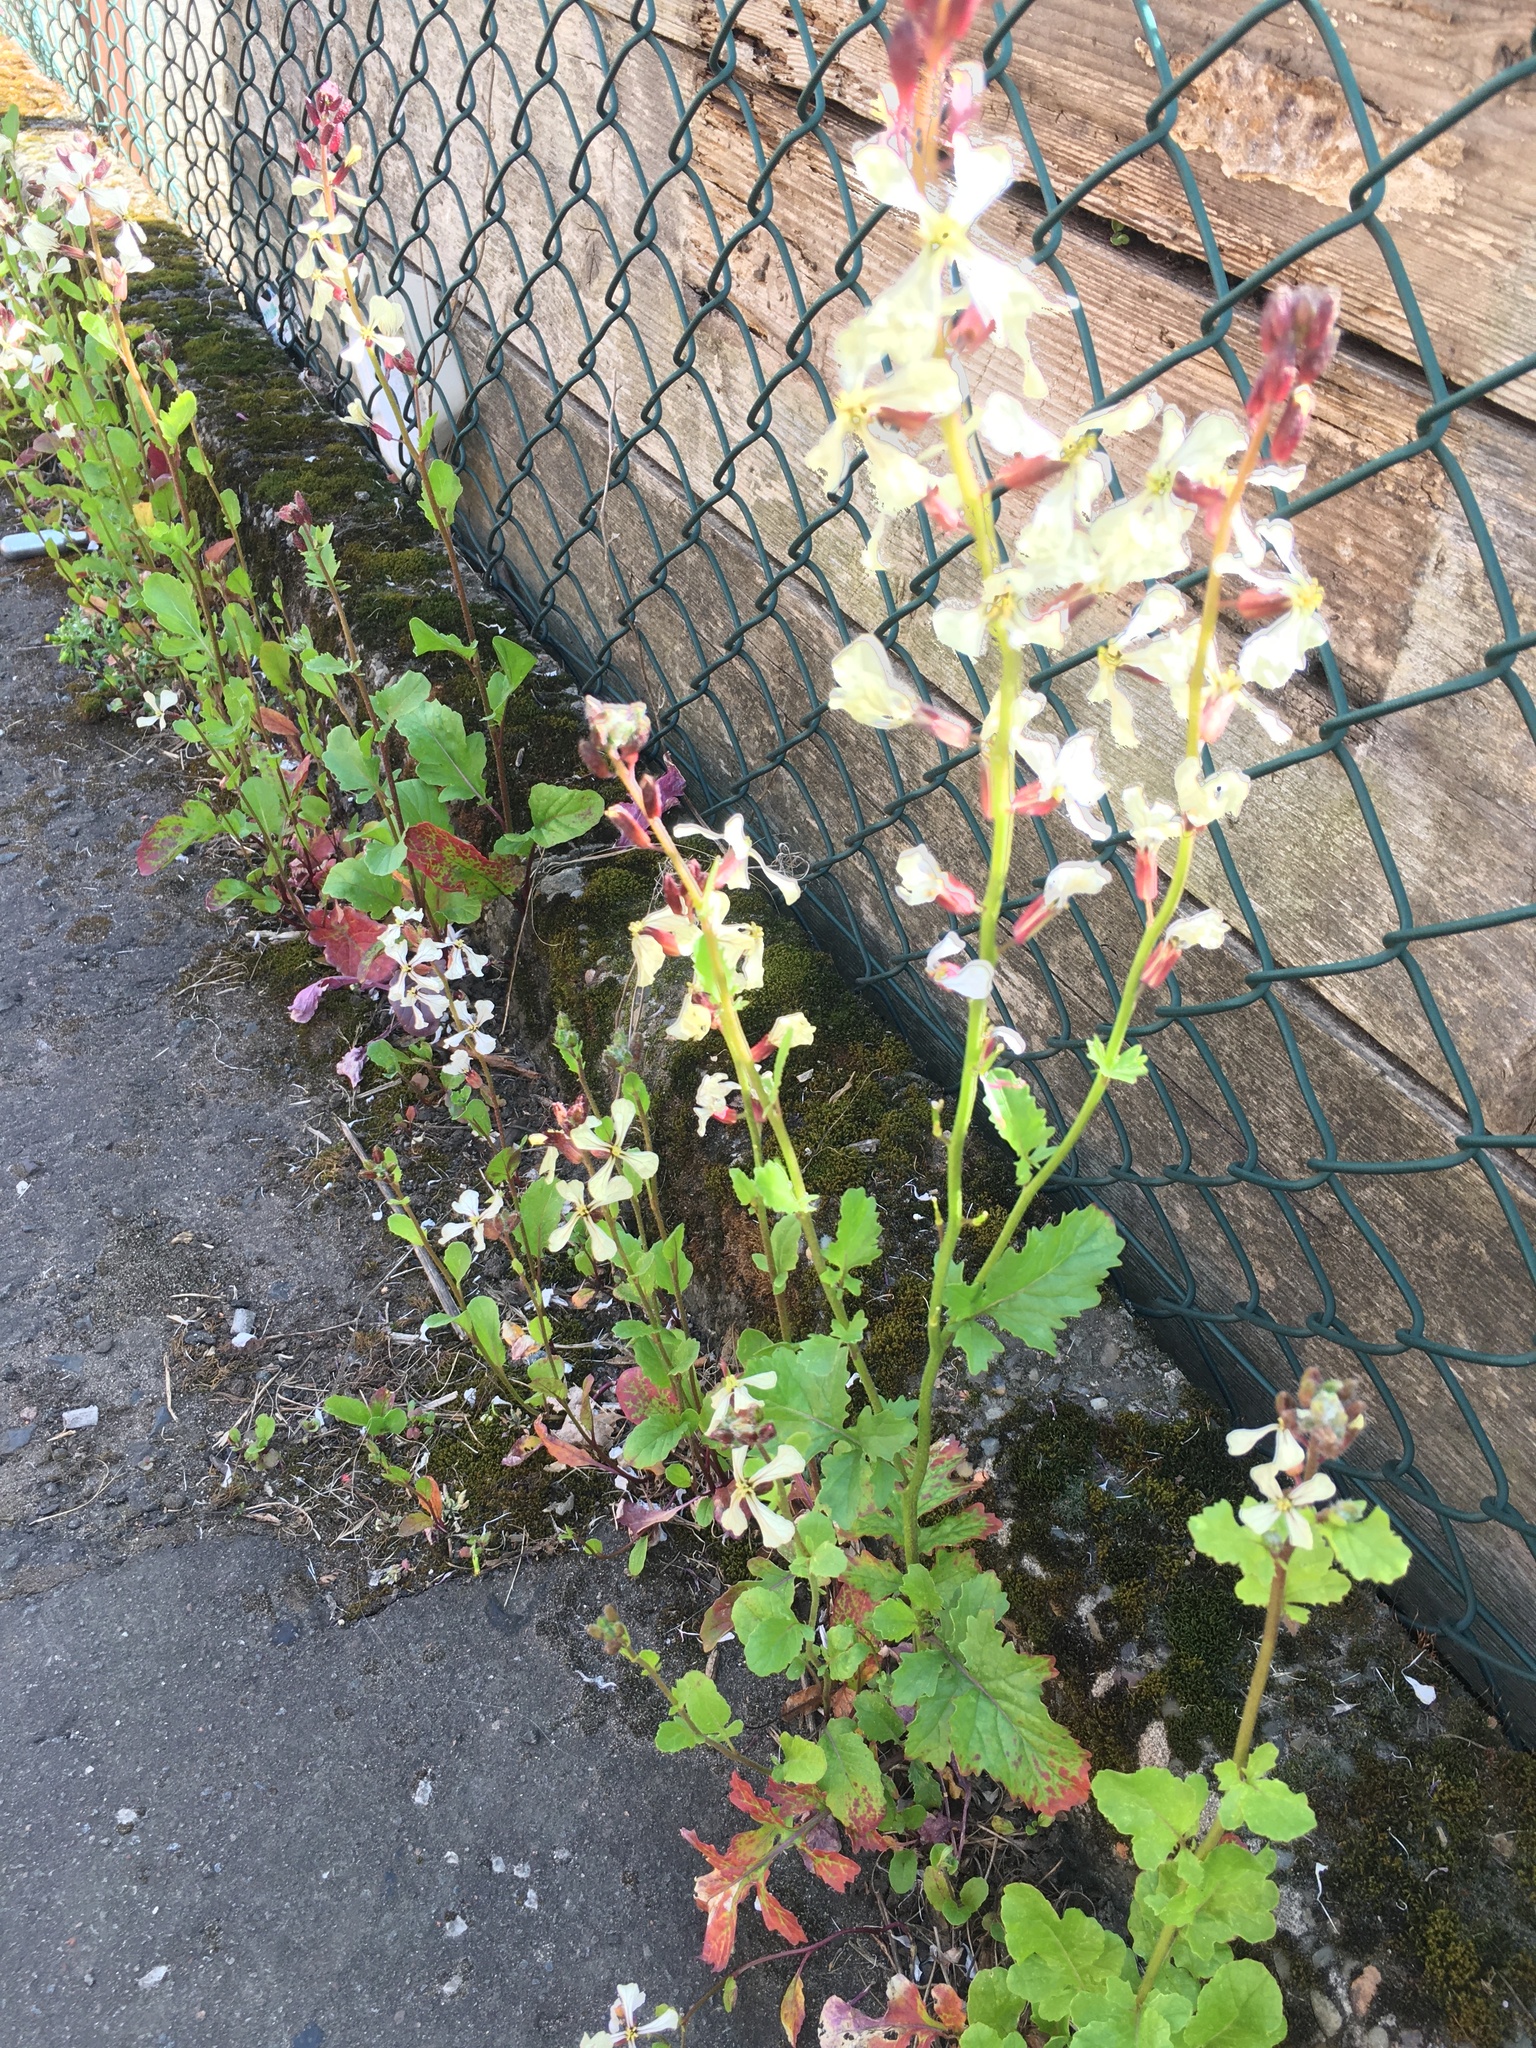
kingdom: Plantae
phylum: Tracheophyta
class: Magnoliopsida
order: Brassicales
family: Brassicaceae
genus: Eruca
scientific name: Eruca vesicaria
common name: Garden rocket
